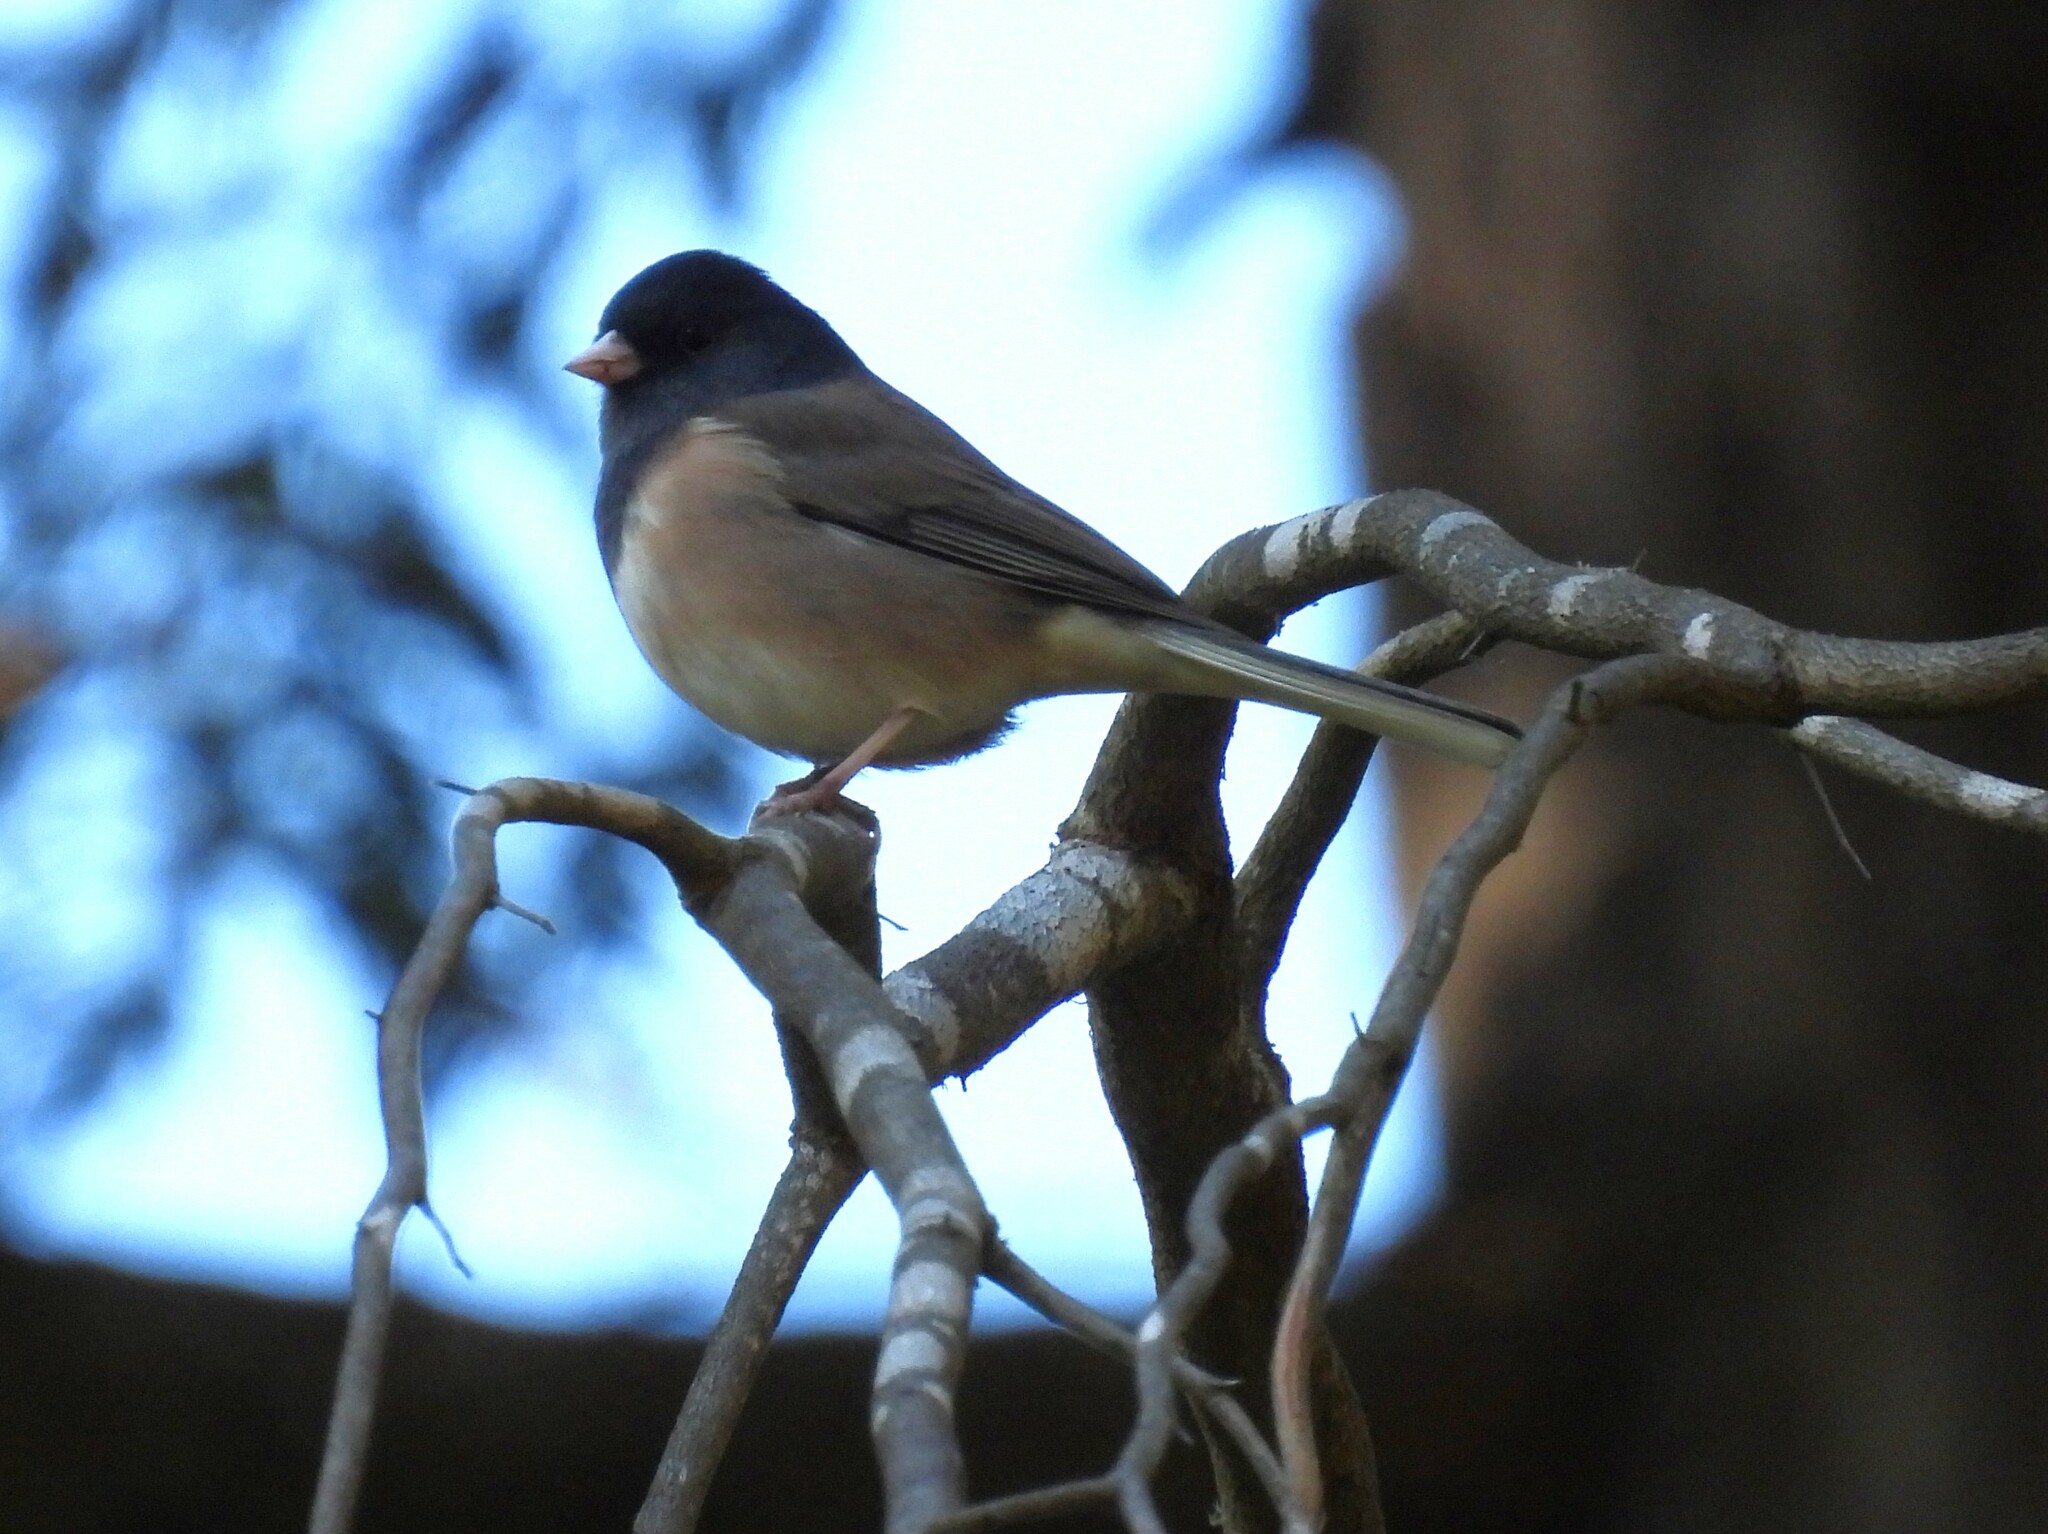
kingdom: Animalia
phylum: Chordata
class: Aves
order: Passeriformes
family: Passerellidae
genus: Junco
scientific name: Junco hyemalis
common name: Dark-eyed junco
